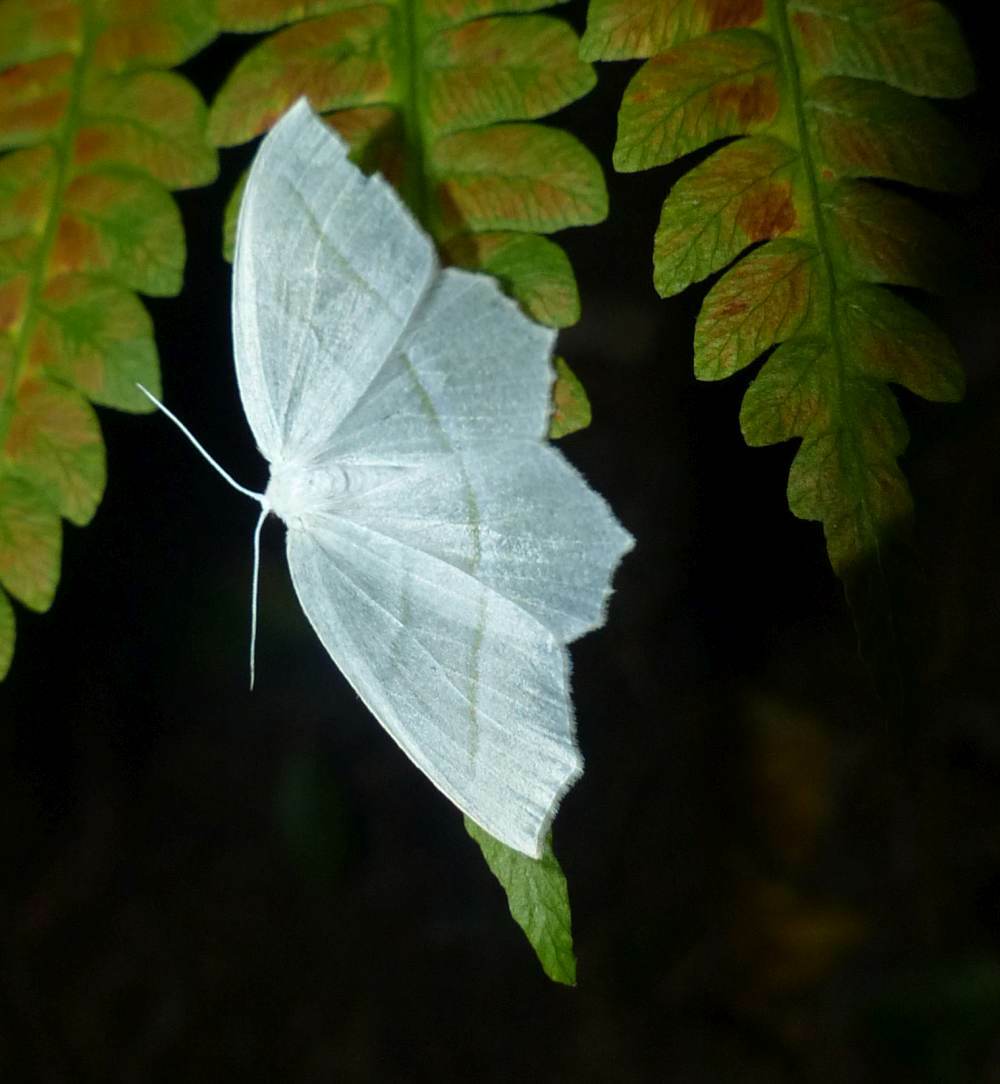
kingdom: Animalia
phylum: Arthropoda
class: Insecta
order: Lepidoptera
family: Geometridae
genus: Campaea
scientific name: Campaea perlata
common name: Fringed looper
